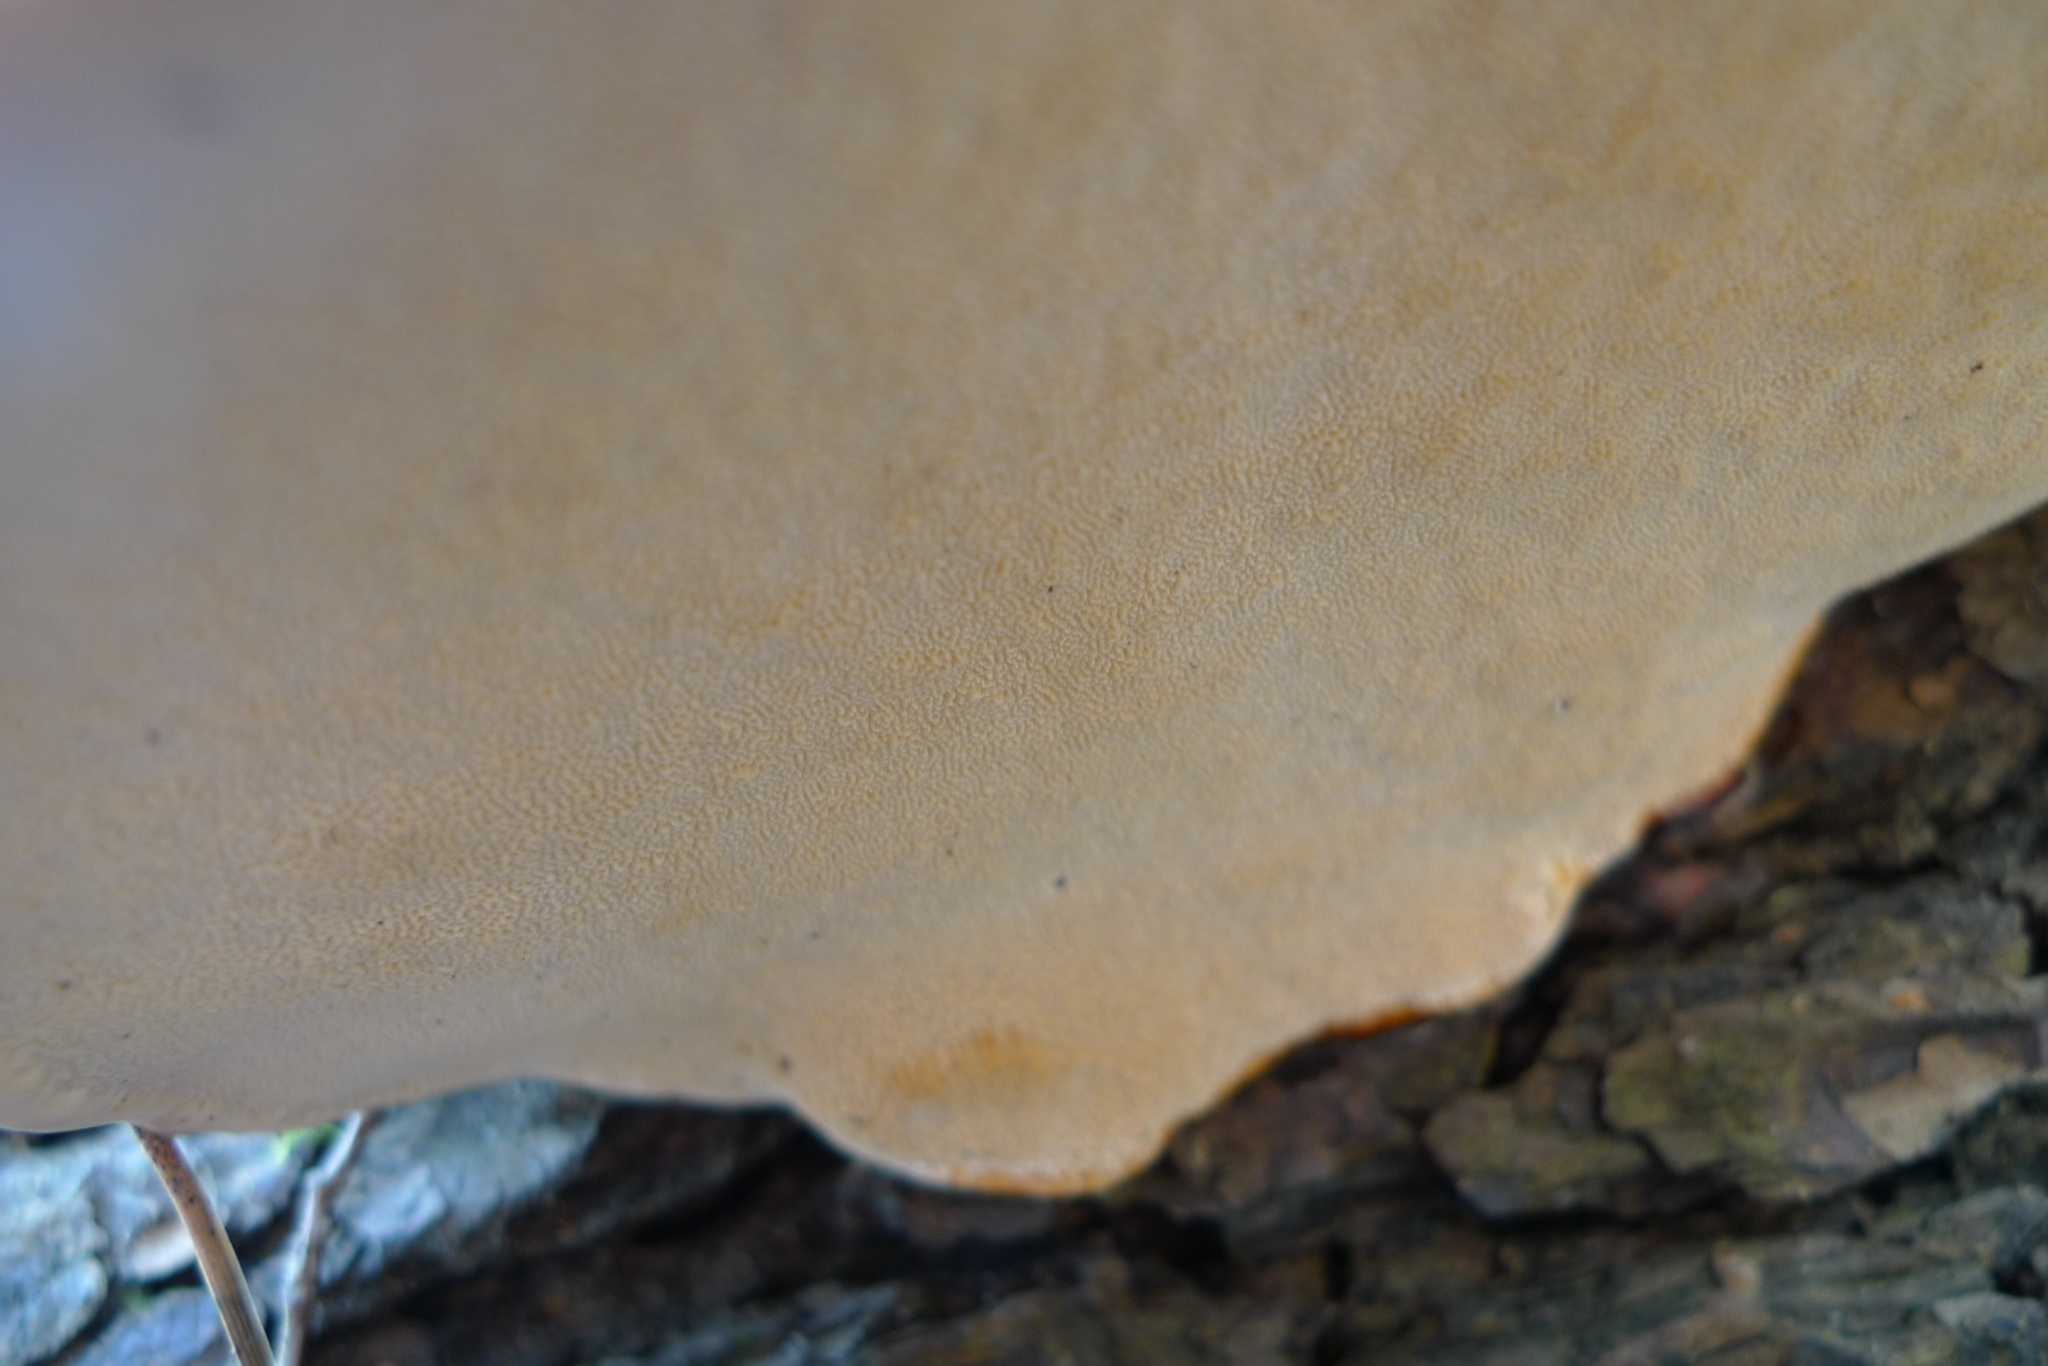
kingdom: Fungi
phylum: Basidiomycota
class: Agaricomycetes
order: Polyporales
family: Fomitopsidaceae
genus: Fomitopsis
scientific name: Fomitopsis pinicola
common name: Red-belted bracket
